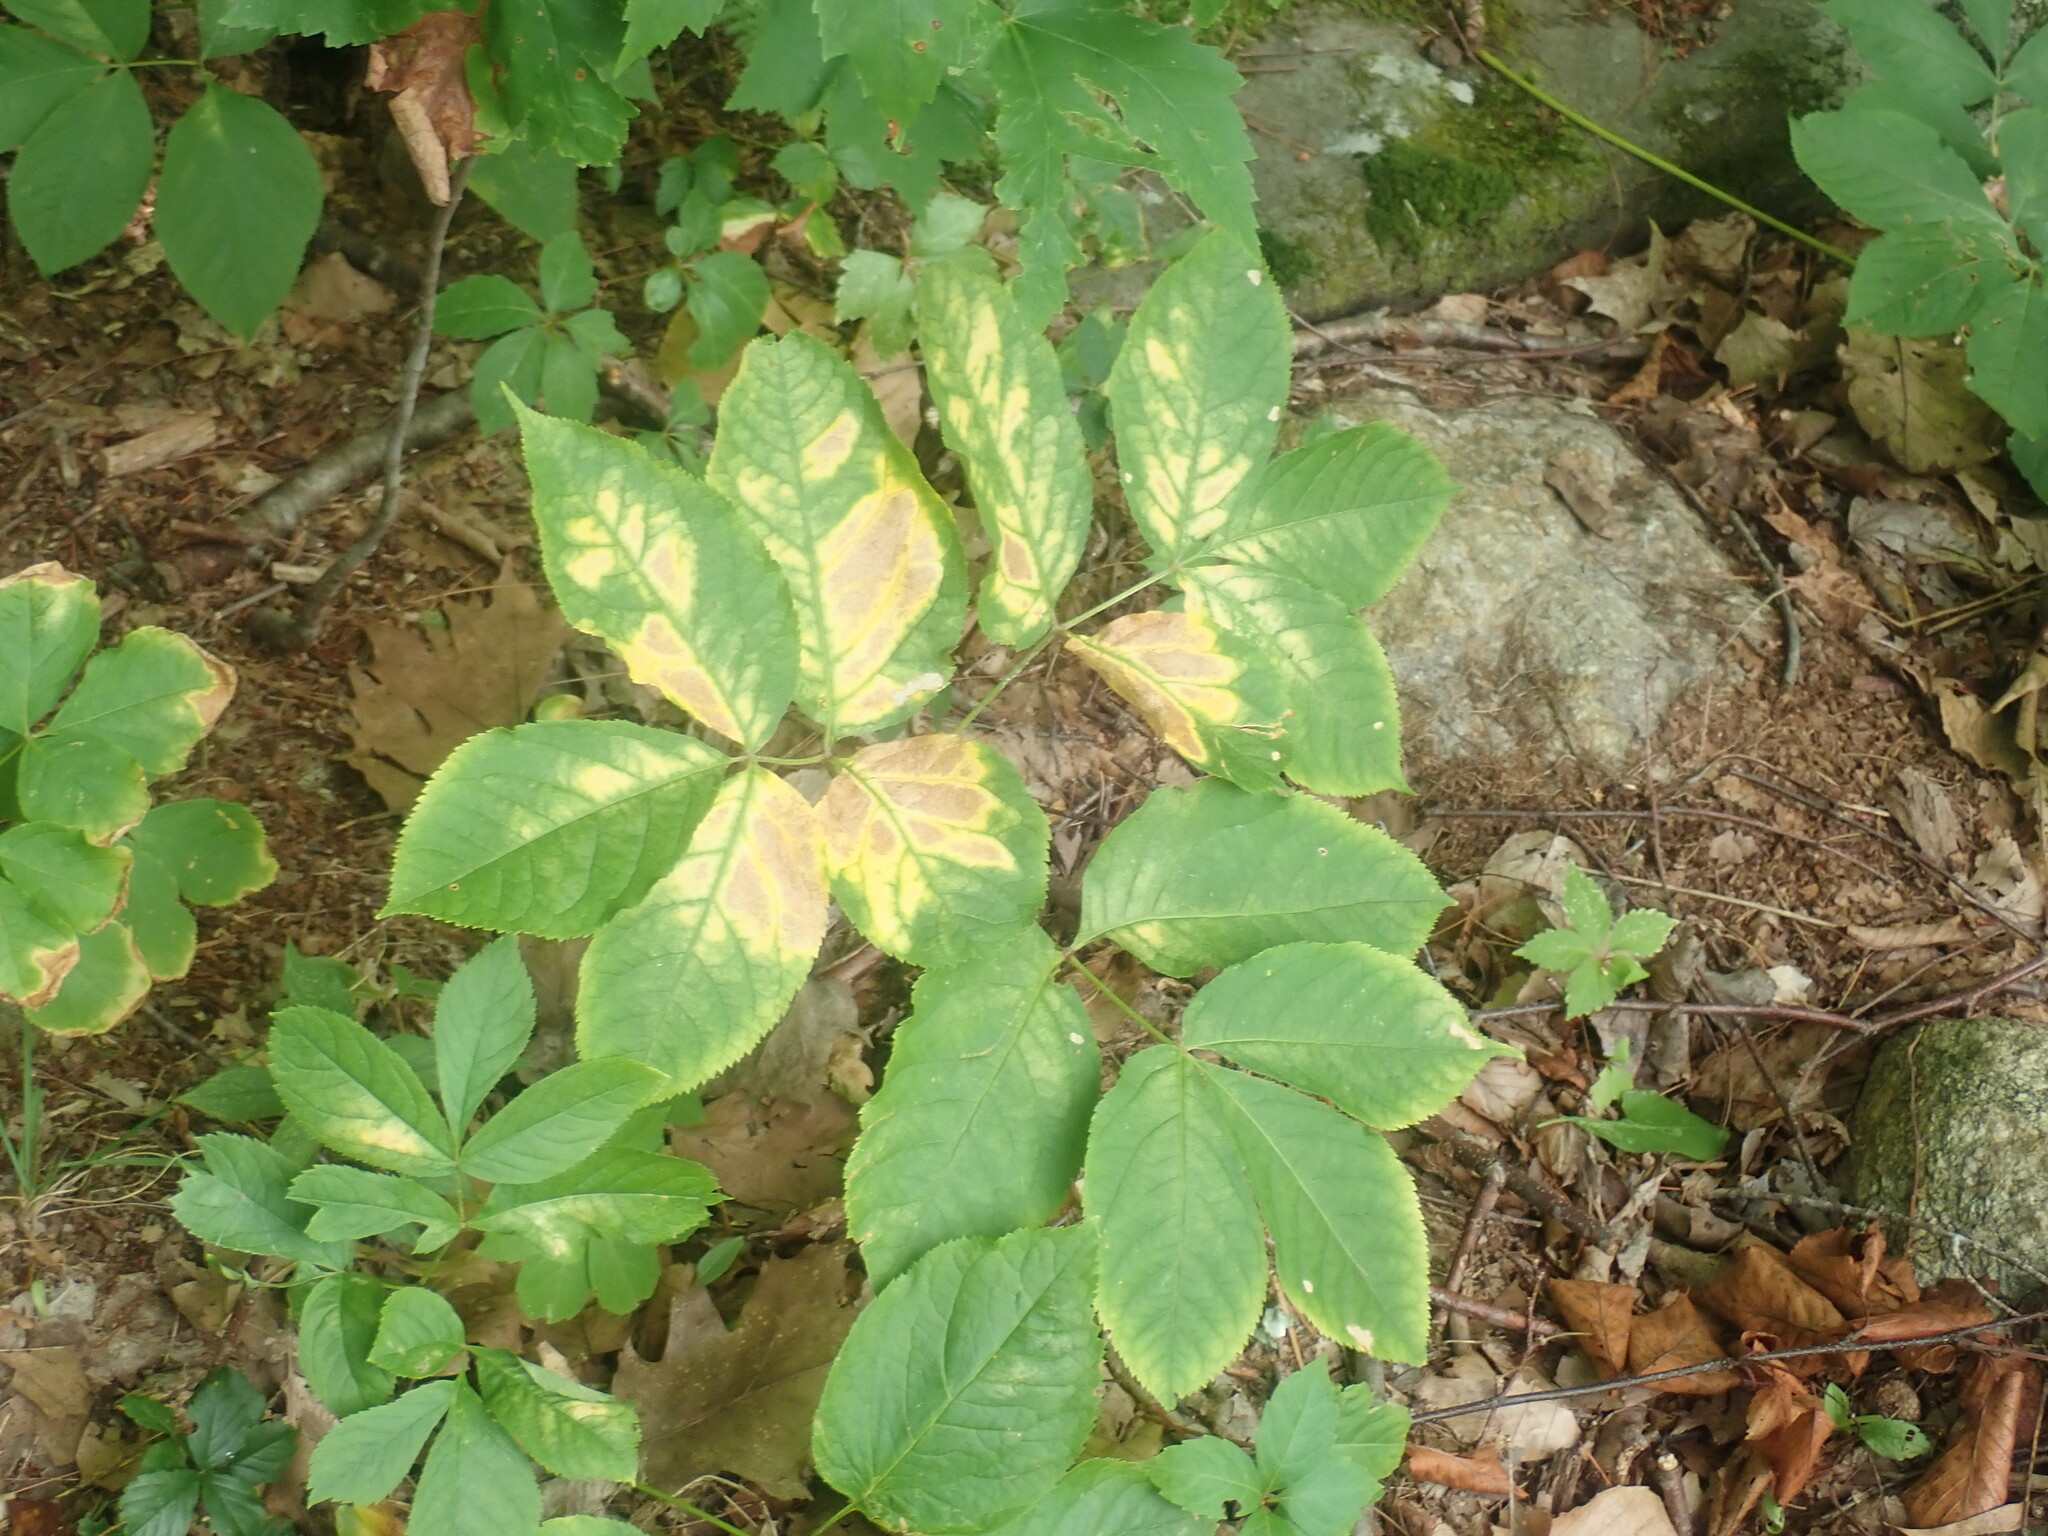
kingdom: Plantae
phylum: Tracheophyta
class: Magnoliopsida
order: Apiales
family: Araliaceae
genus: Aralia
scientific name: Aralia nudicaulis
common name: Wild sarsaparilla
